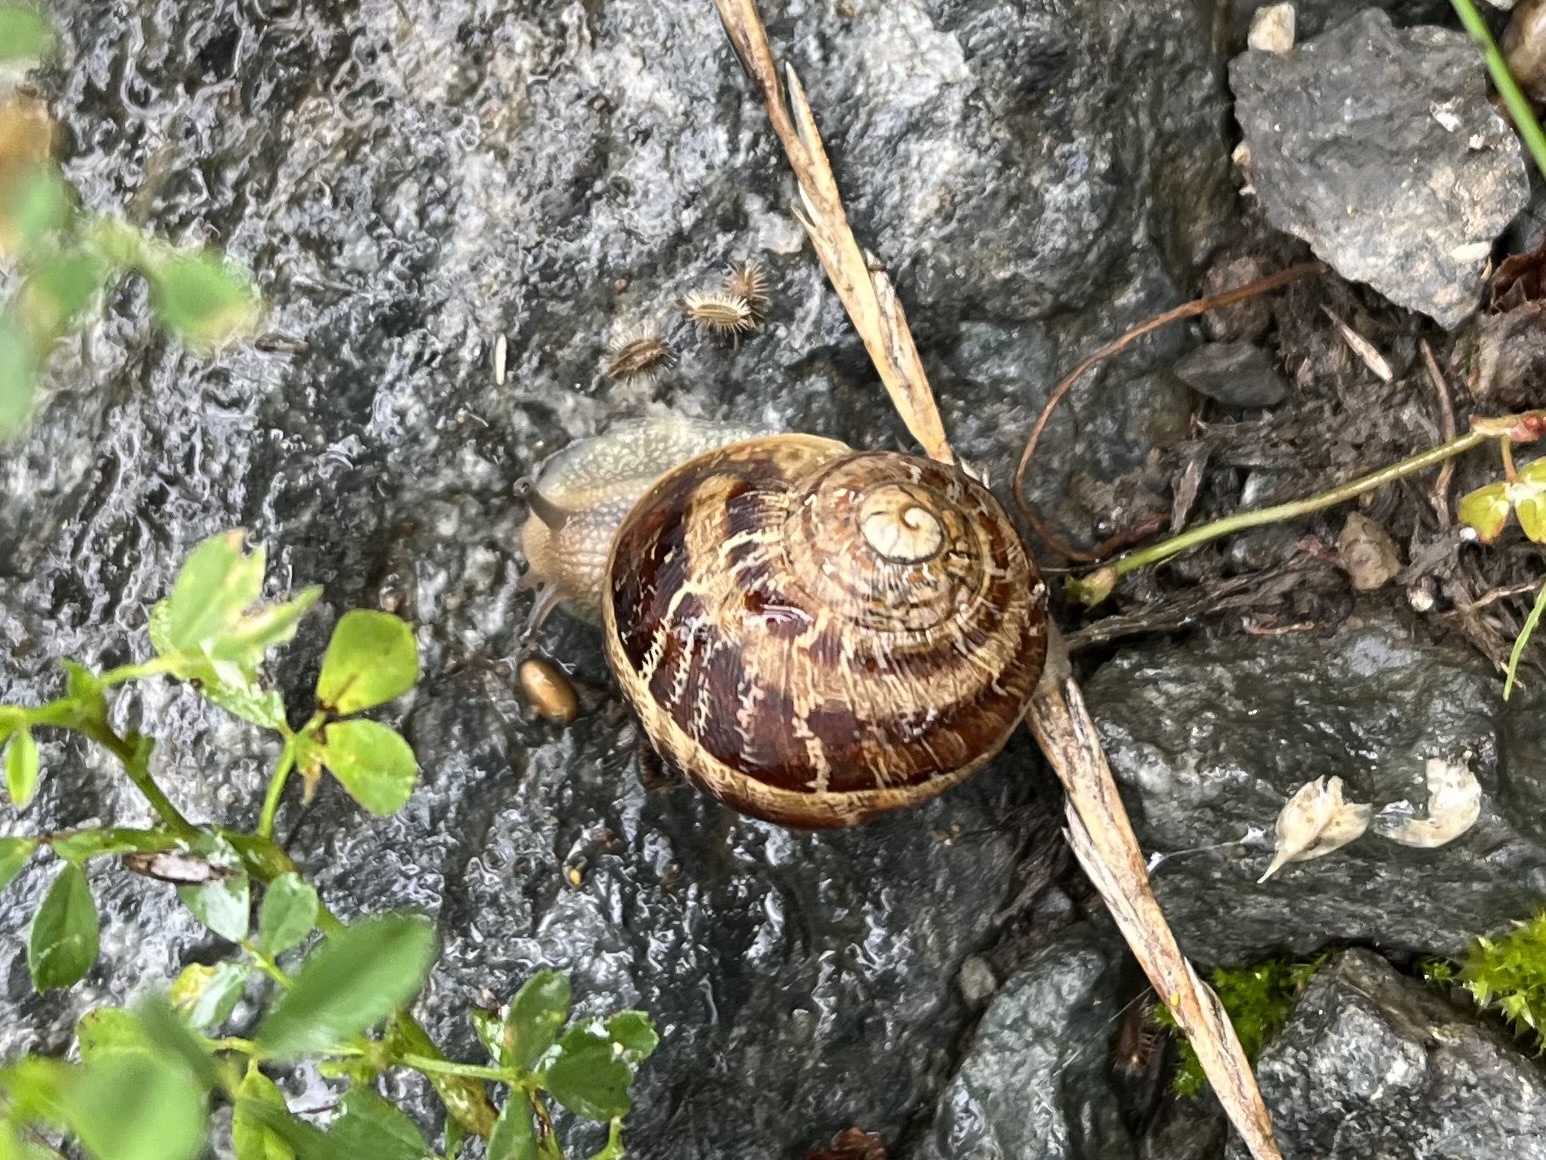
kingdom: Animalia
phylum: Mollusca
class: Gastropoda
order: Stylommatophora
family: Helicidae
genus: Cornu
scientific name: Cornu aspersum
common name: Brown garden snail
